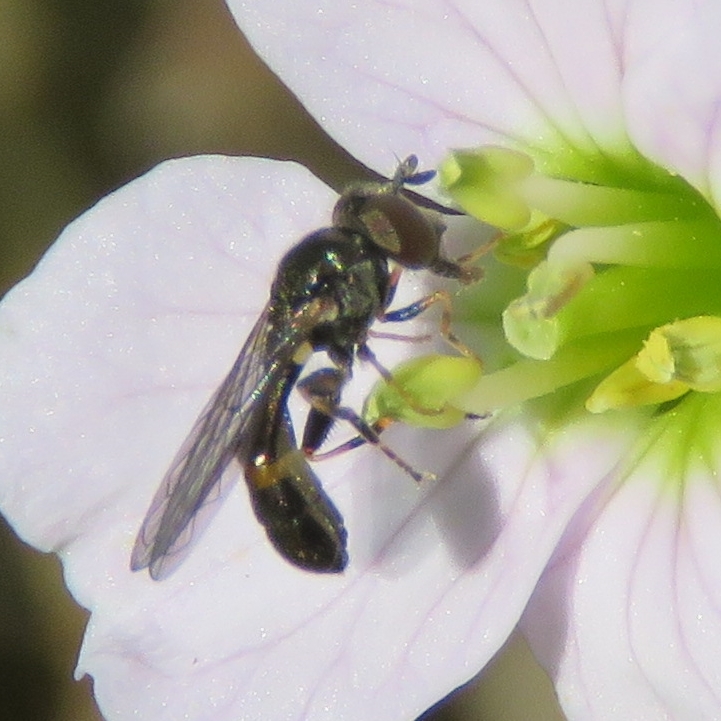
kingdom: Animalia
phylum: Arthropoda
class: Insecta
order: Diptera
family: Syrphidae
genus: Neoascia
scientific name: Neoascia meticulosa
